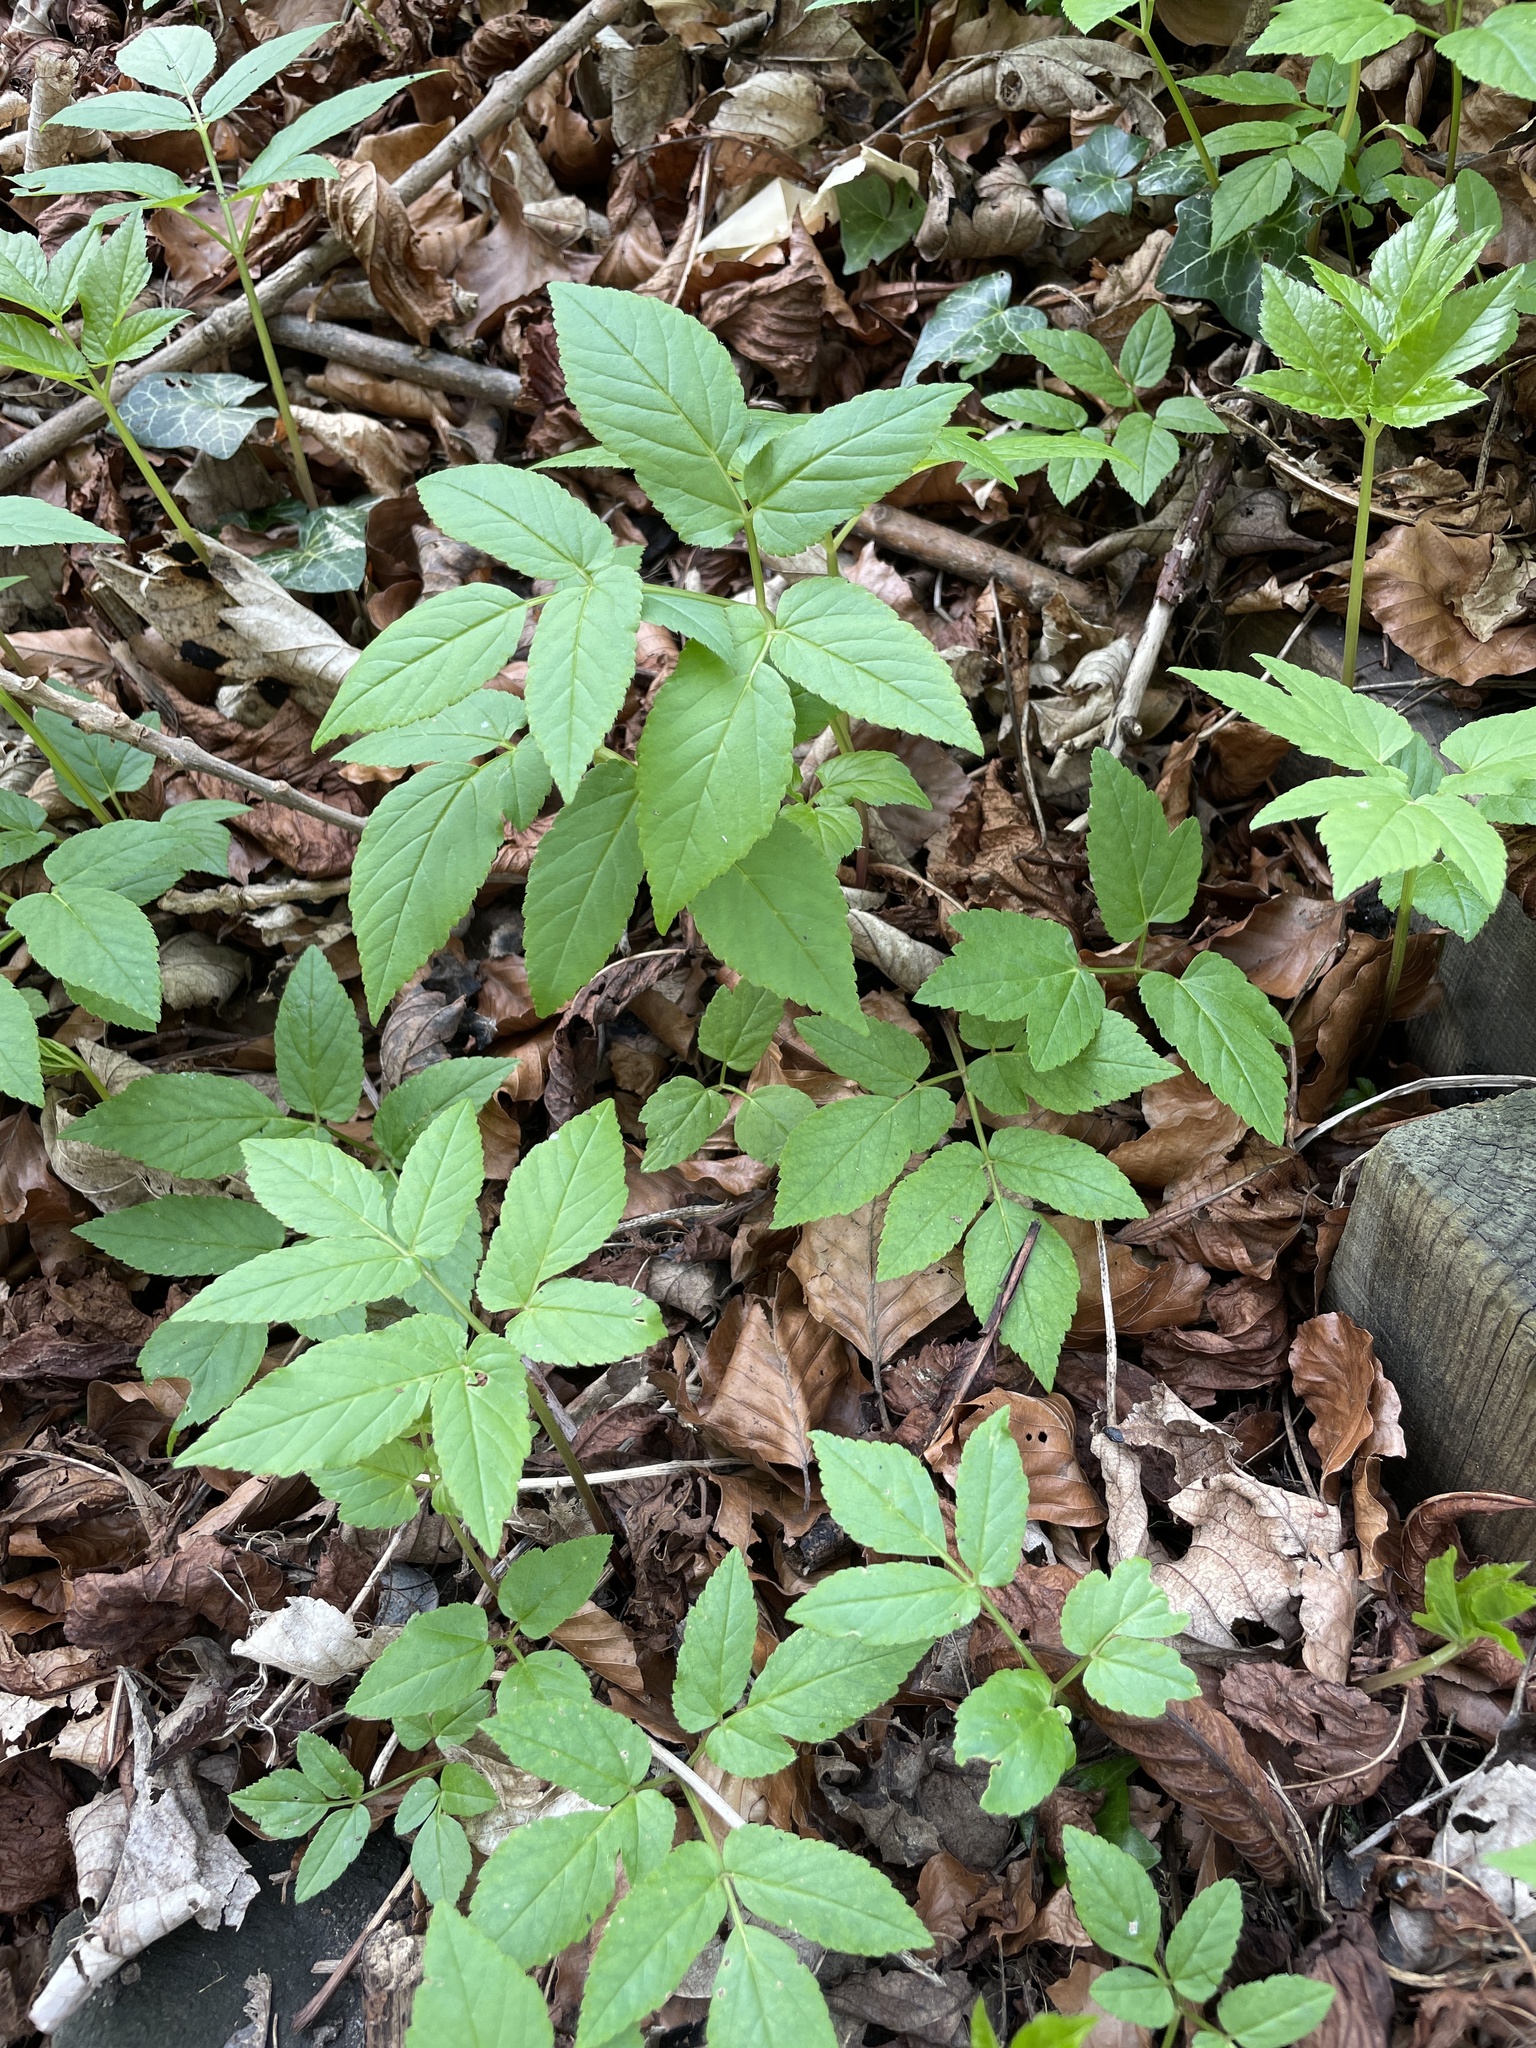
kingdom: Plantae
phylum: Tracheophyta
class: Magnoliopsida
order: Apiales
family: Apiaceae
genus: Aegopodium
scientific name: Aegopodium podagraria
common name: Ground-elder
